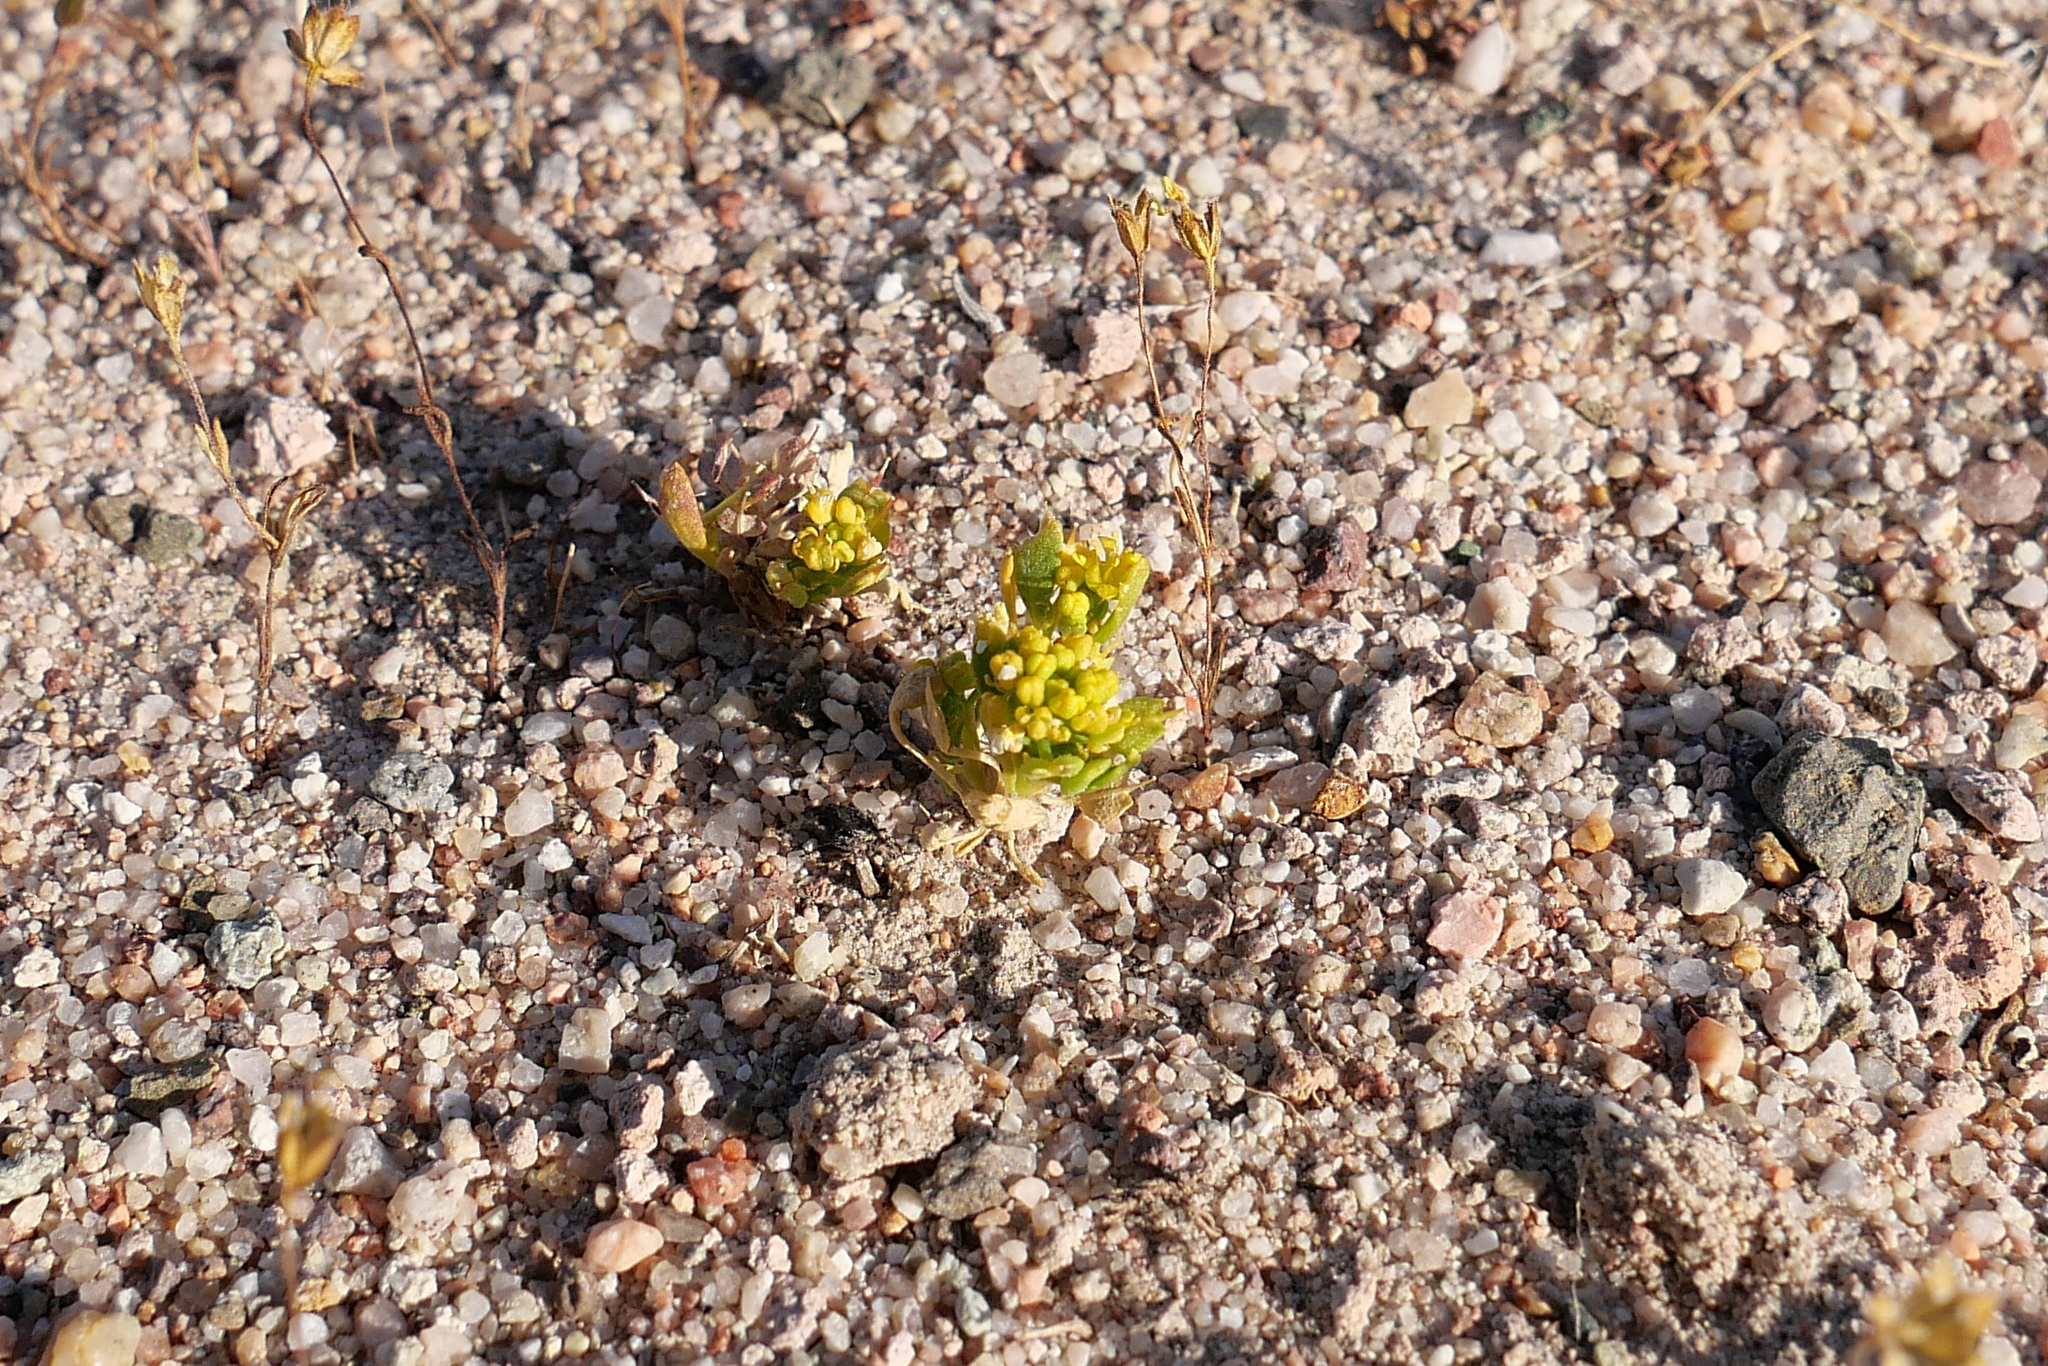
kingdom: Plantae
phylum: Tracheophyta
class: Magnoliopsida
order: Brassicales
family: Brassicaceae
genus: Lepidium
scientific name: Lepidium flavum
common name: Yellow pepperwort
